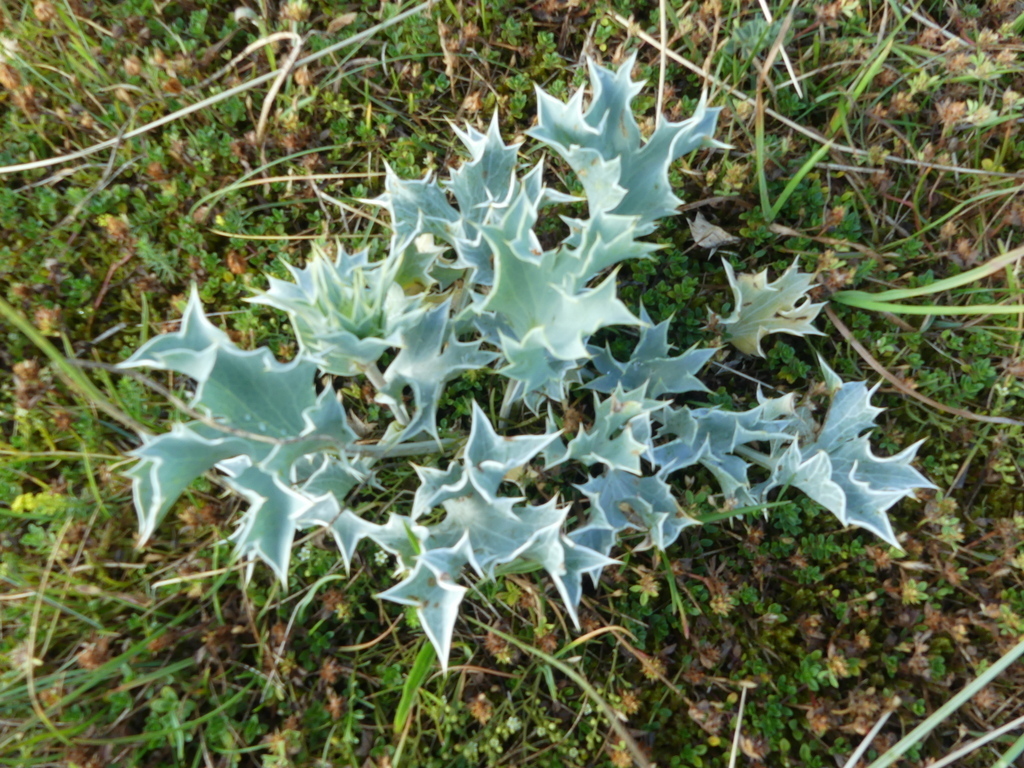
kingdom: Plantae
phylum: Tracheophyta
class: Magnoliopsida
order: Apiales
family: Apiaceae
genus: Eryngium
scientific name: Eryngium maritimum
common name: Sea-holly
